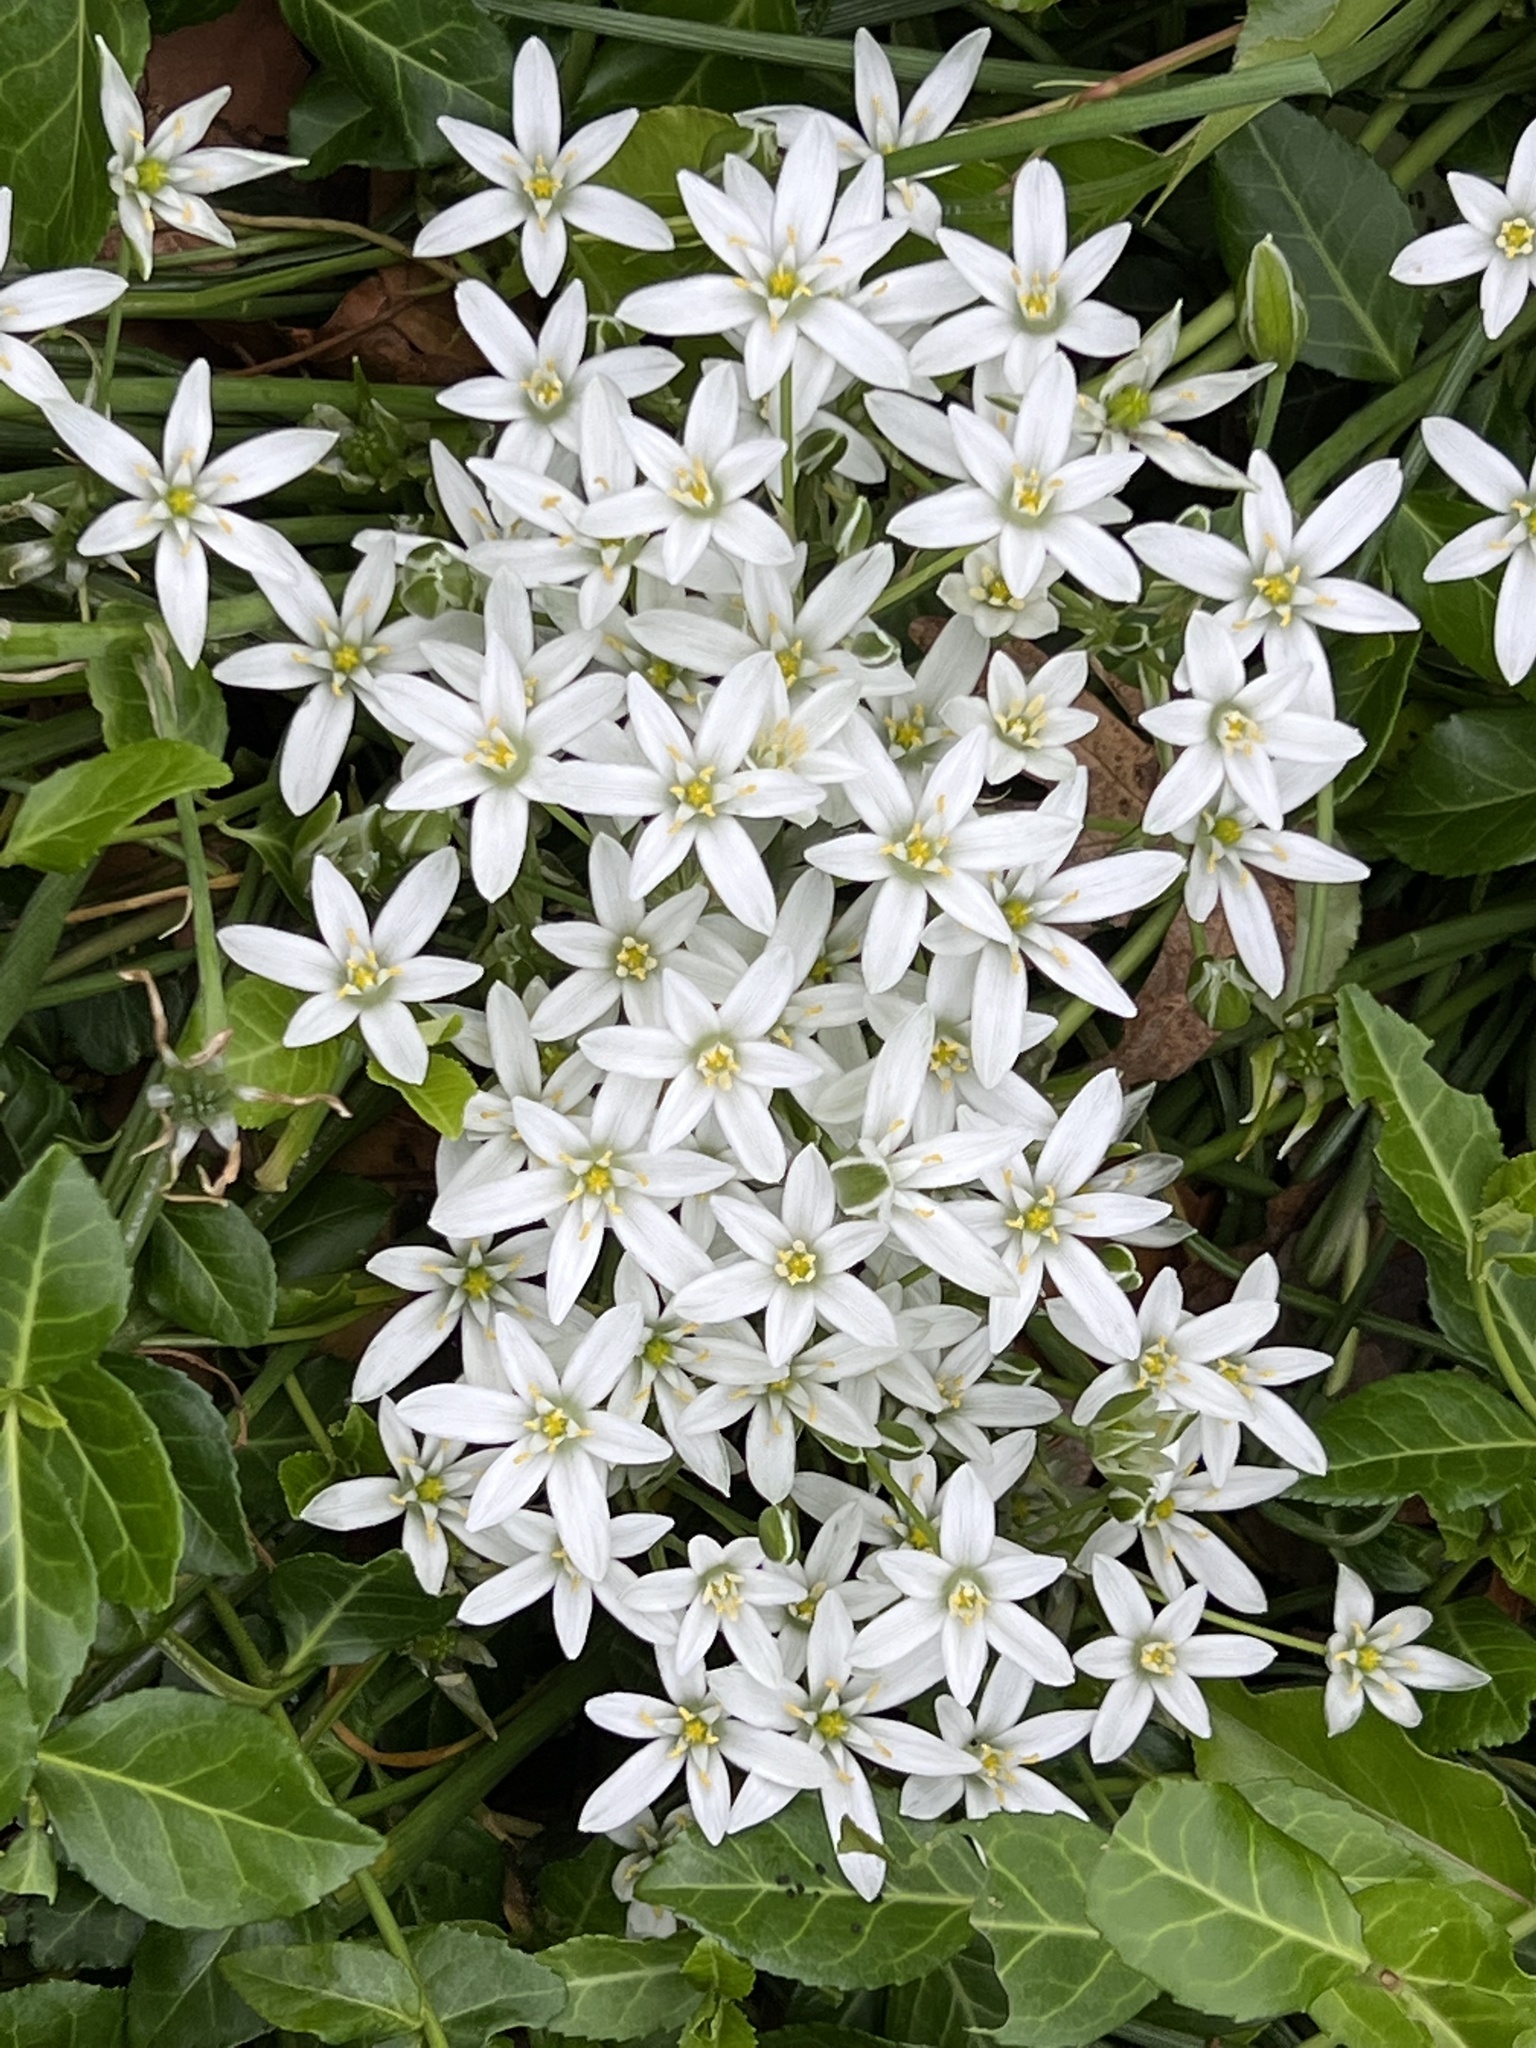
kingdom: Plantae
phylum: Tracheophyta
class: Liliopsida
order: Asparagales
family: Asparagaceae
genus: Ornithogalum
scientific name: Ornithogalum umbellatum
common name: Garden star-of-bethlehem
